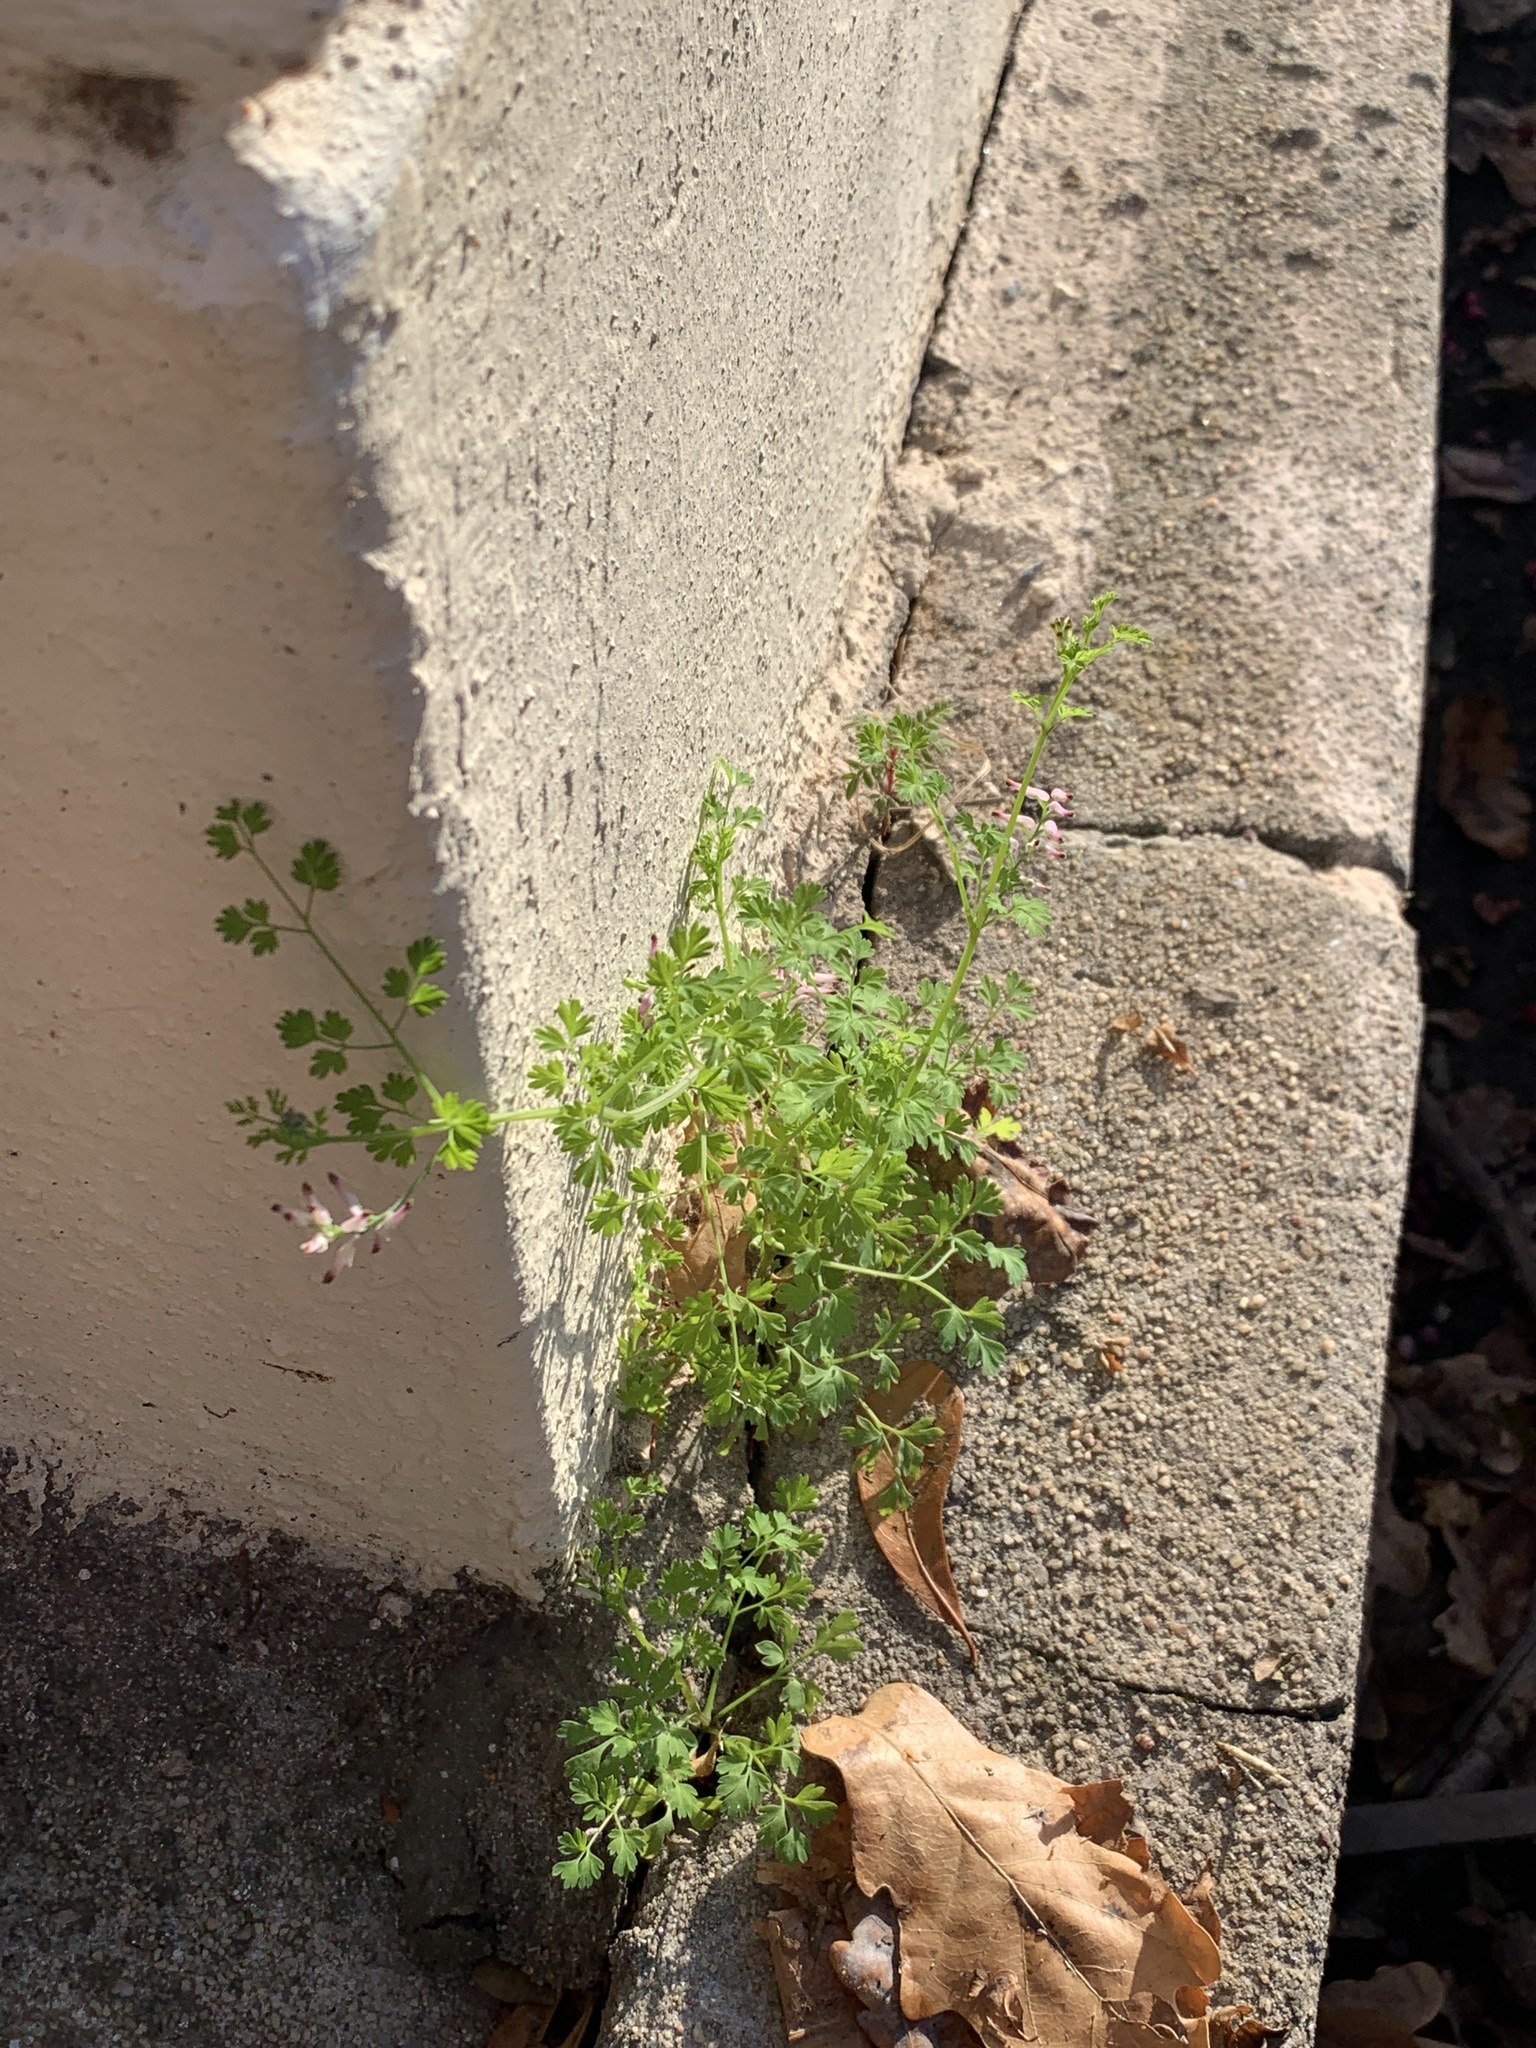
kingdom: Plantae
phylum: Tracheophyta
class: Magnoliopsida
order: Ranunculales
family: Papaveraceae
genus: Fumaria
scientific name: Fumaria muralis
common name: Common ramping-fumitory
